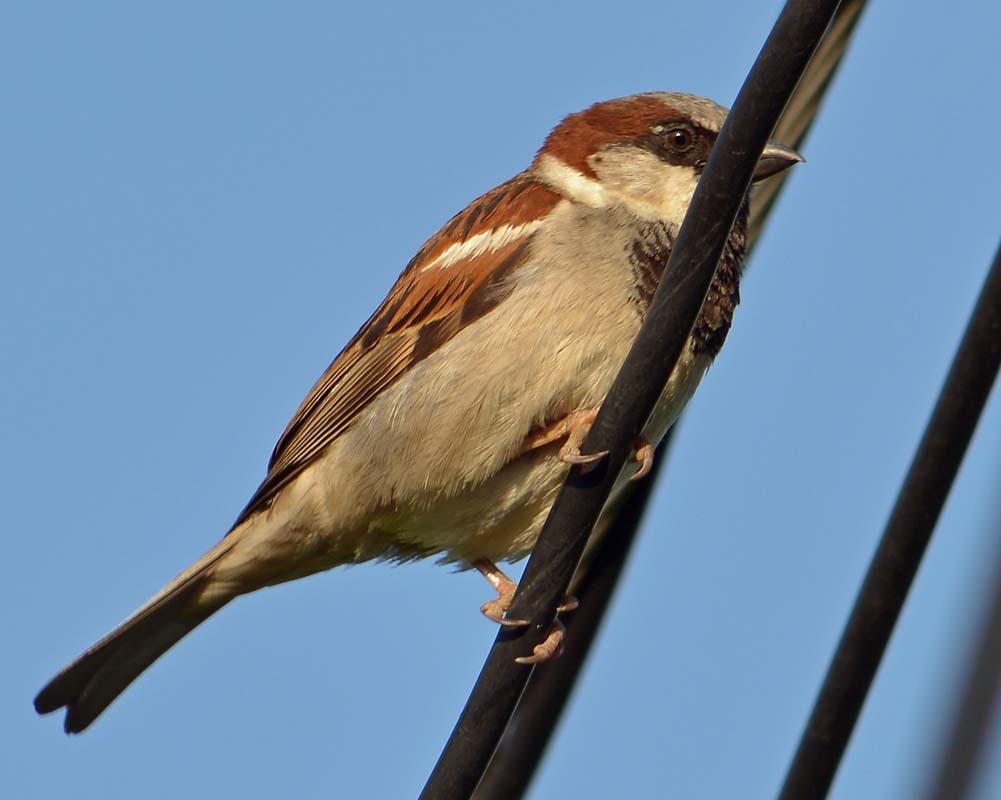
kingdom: Animalia
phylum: Chordata
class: Aves
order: Passeriformes
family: Passeridae
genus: Passer
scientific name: Passer domesticus
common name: House sparrow
